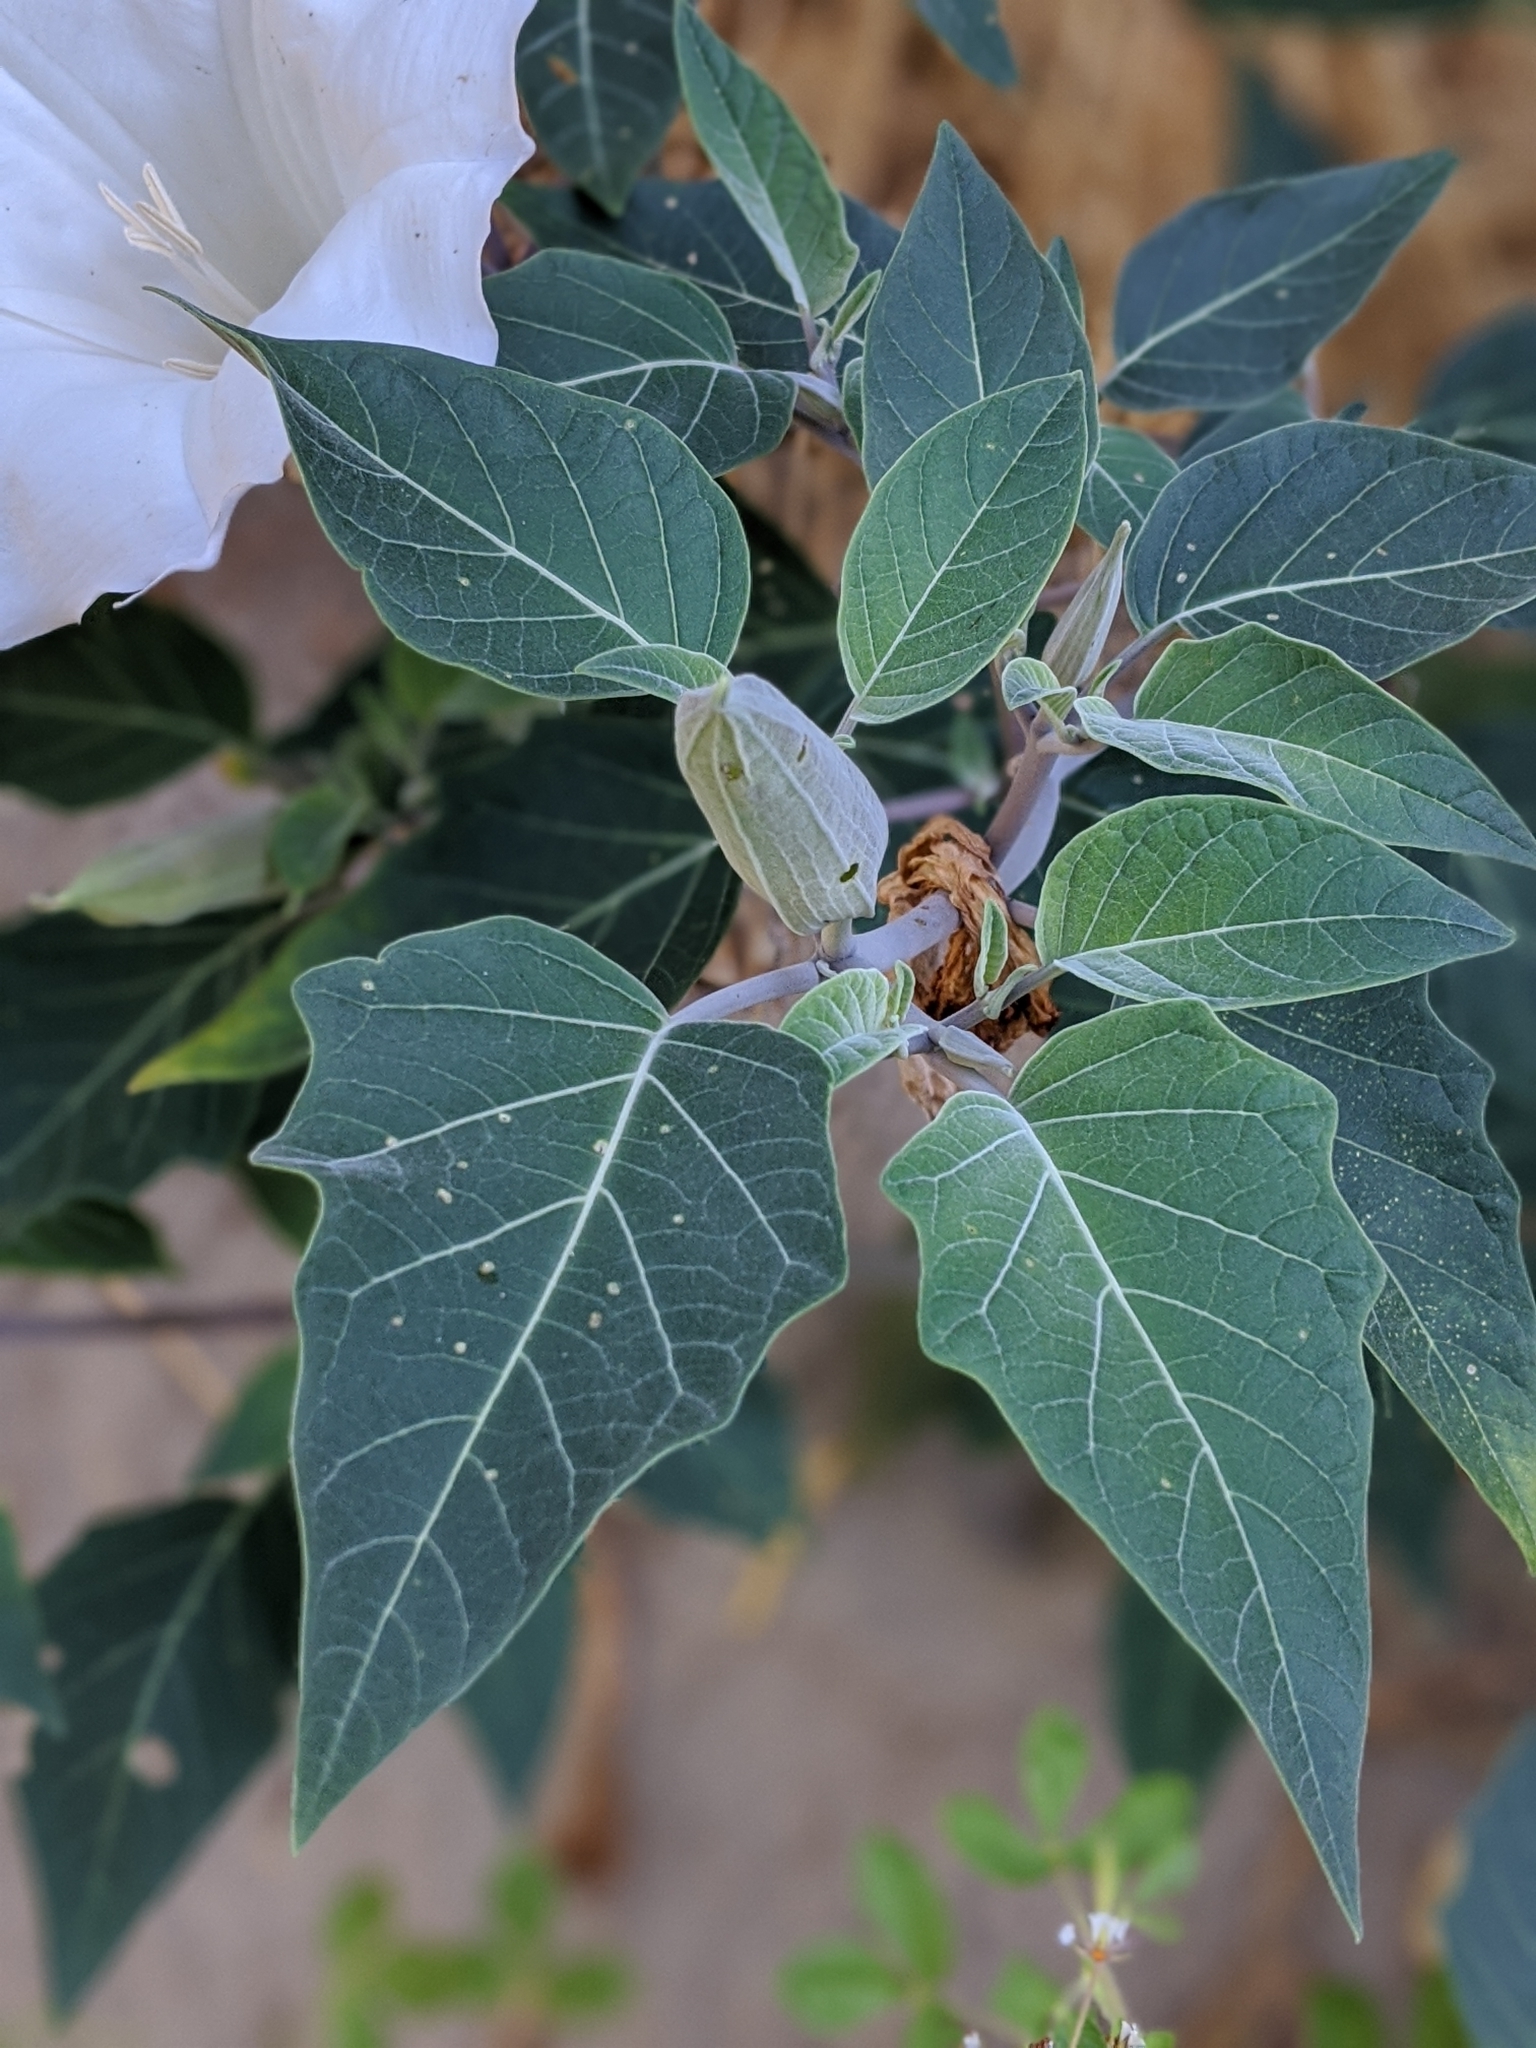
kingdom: Plantae
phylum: Tracheophyta
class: Magnoliopsida
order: Solanales
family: Solanaceae
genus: Datura
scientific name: Datura wrightii
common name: Sacred thorn-apple
